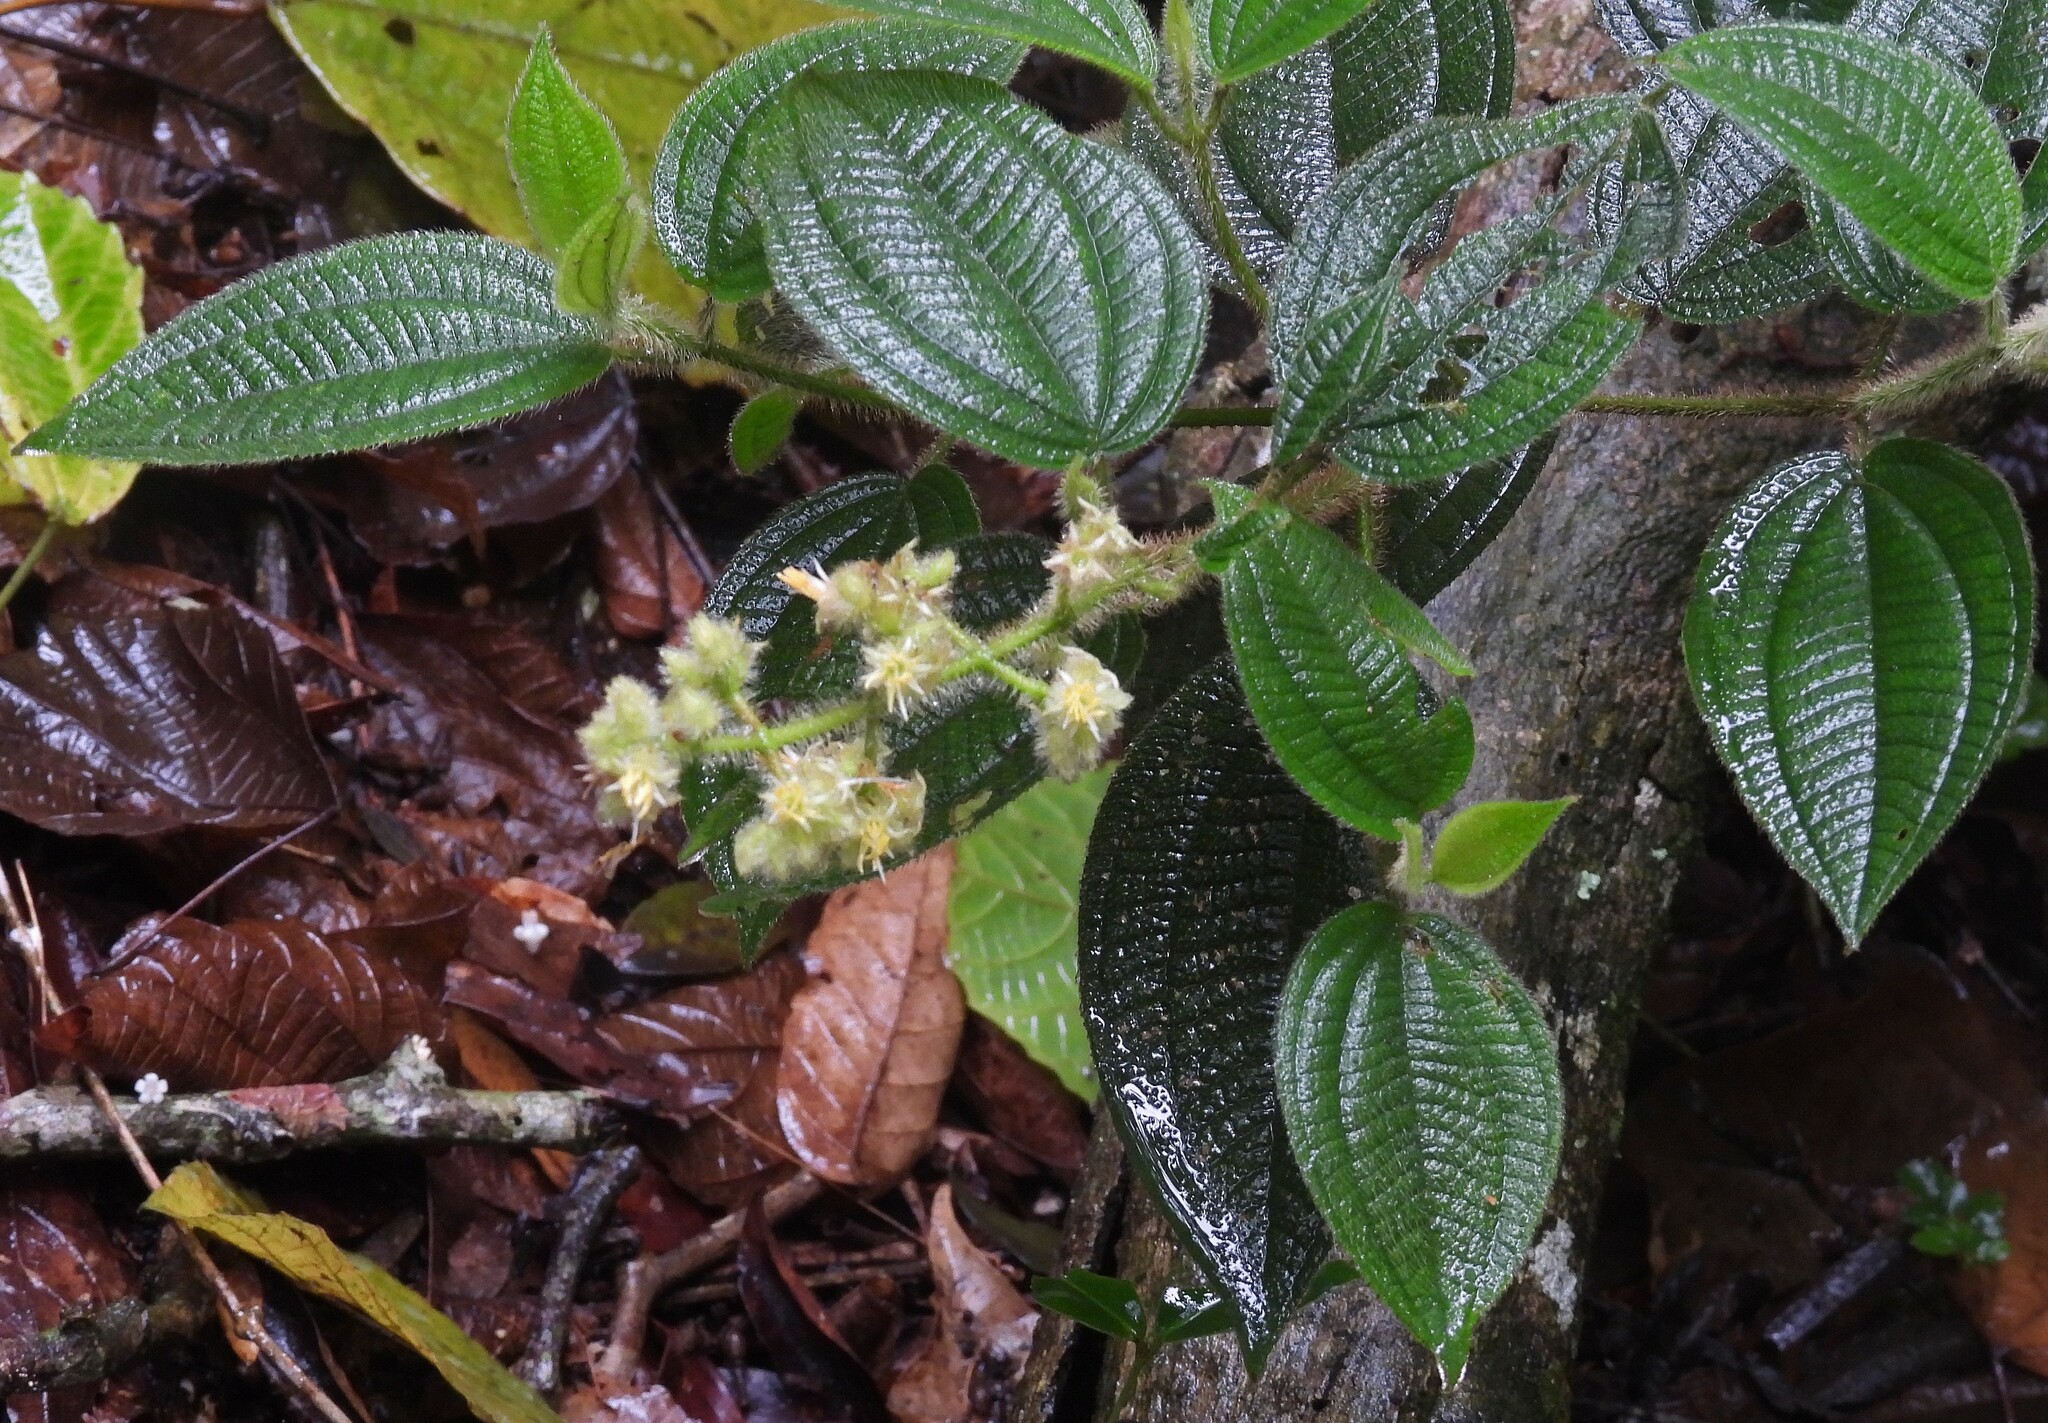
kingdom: Plantae
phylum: Tracheophyta
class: Magnoliopsida
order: Myrtales
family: Melastomataceae
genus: Miconia
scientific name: Miconia australis
